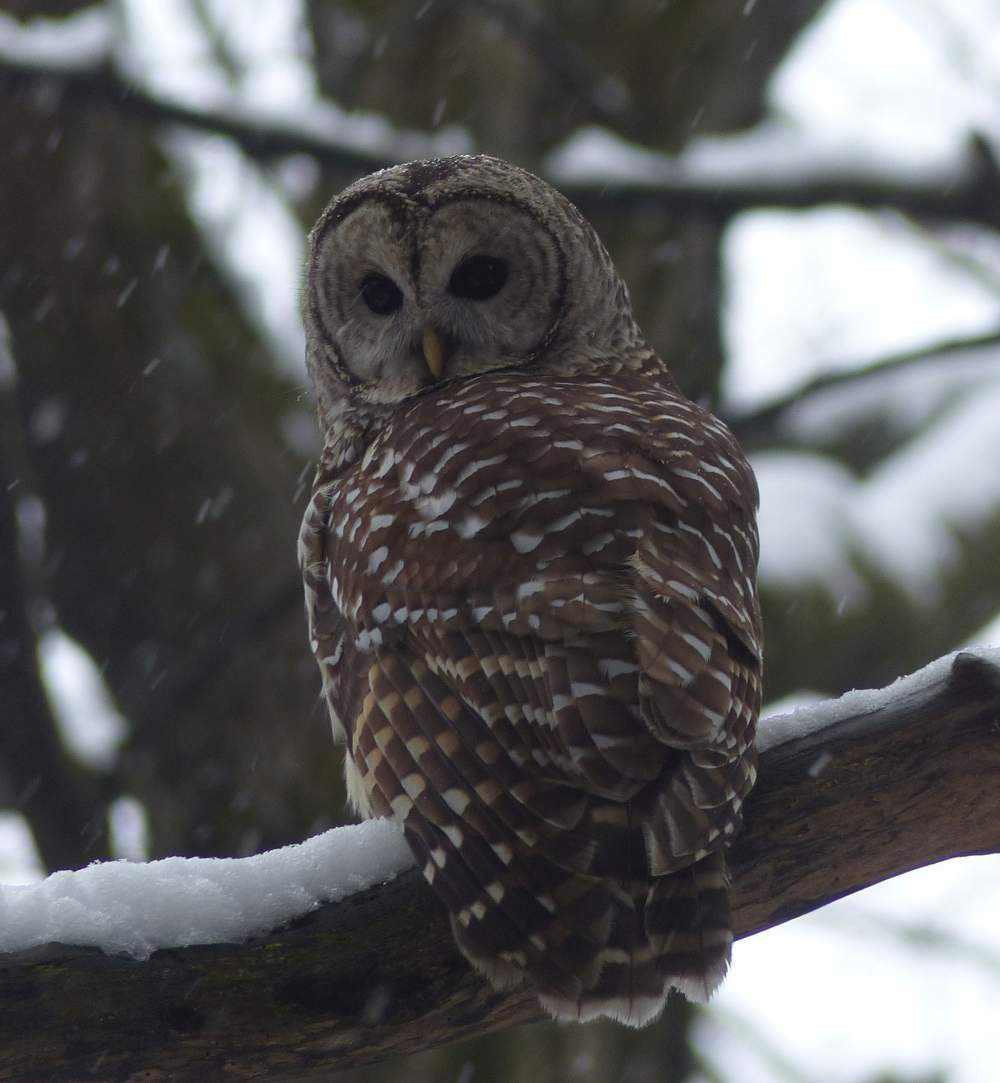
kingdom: Animalia
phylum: Chordata
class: Aves
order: Strigiformes
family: Strigidae
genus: Strix
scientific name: Strix varia
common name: Barred owl
